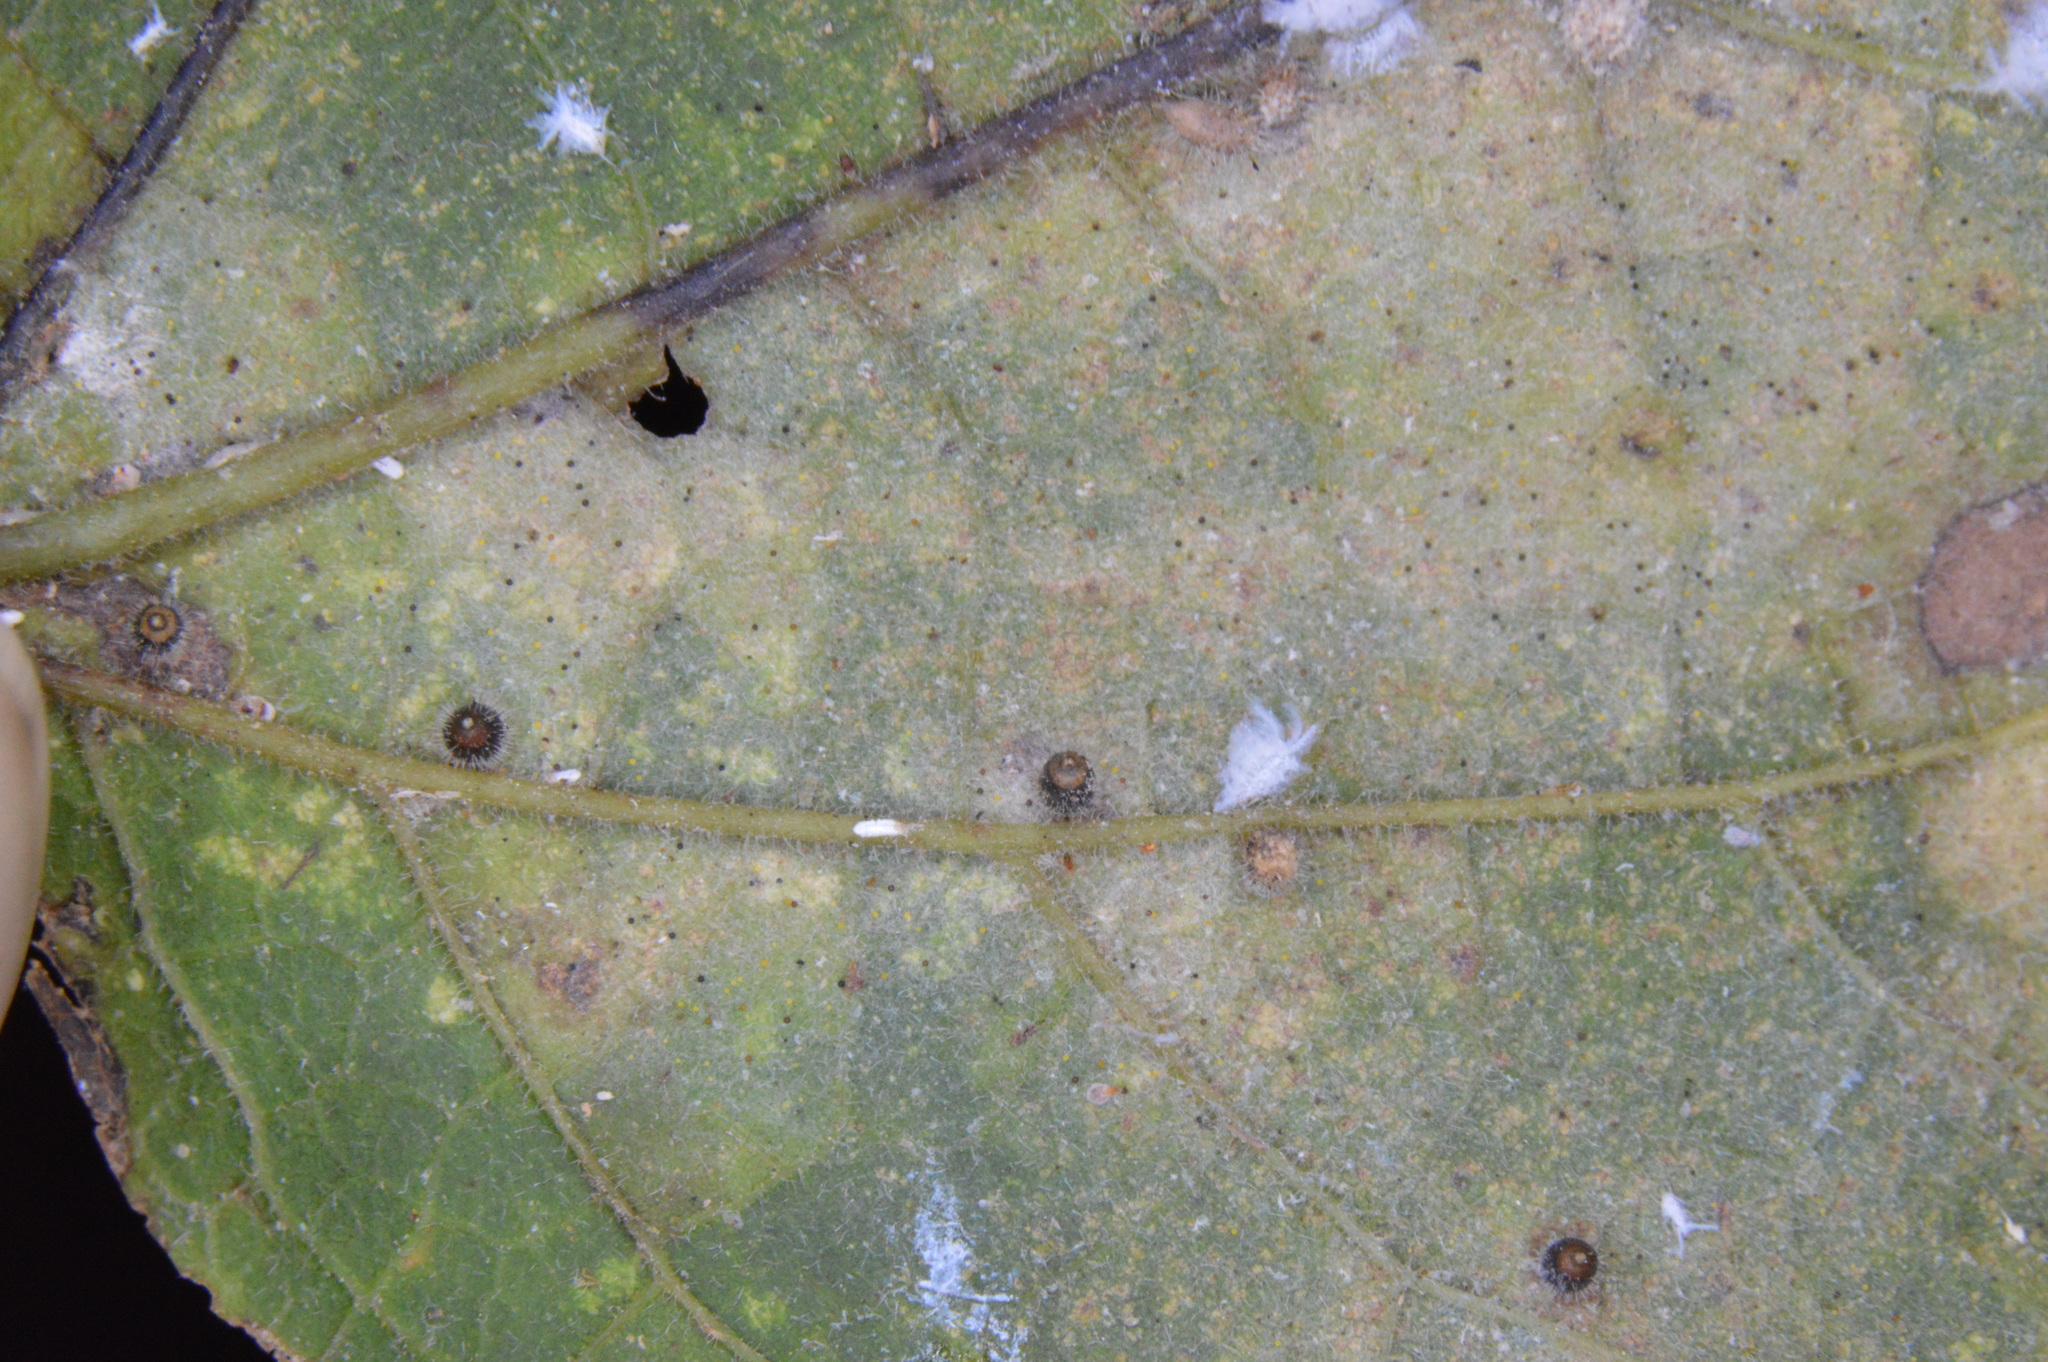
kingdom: Animalia
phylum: Arthropoda
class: Insecta
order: Diptera
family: Cecidomyiidae
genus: Celticecis
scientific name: Celticecis cupiformis
